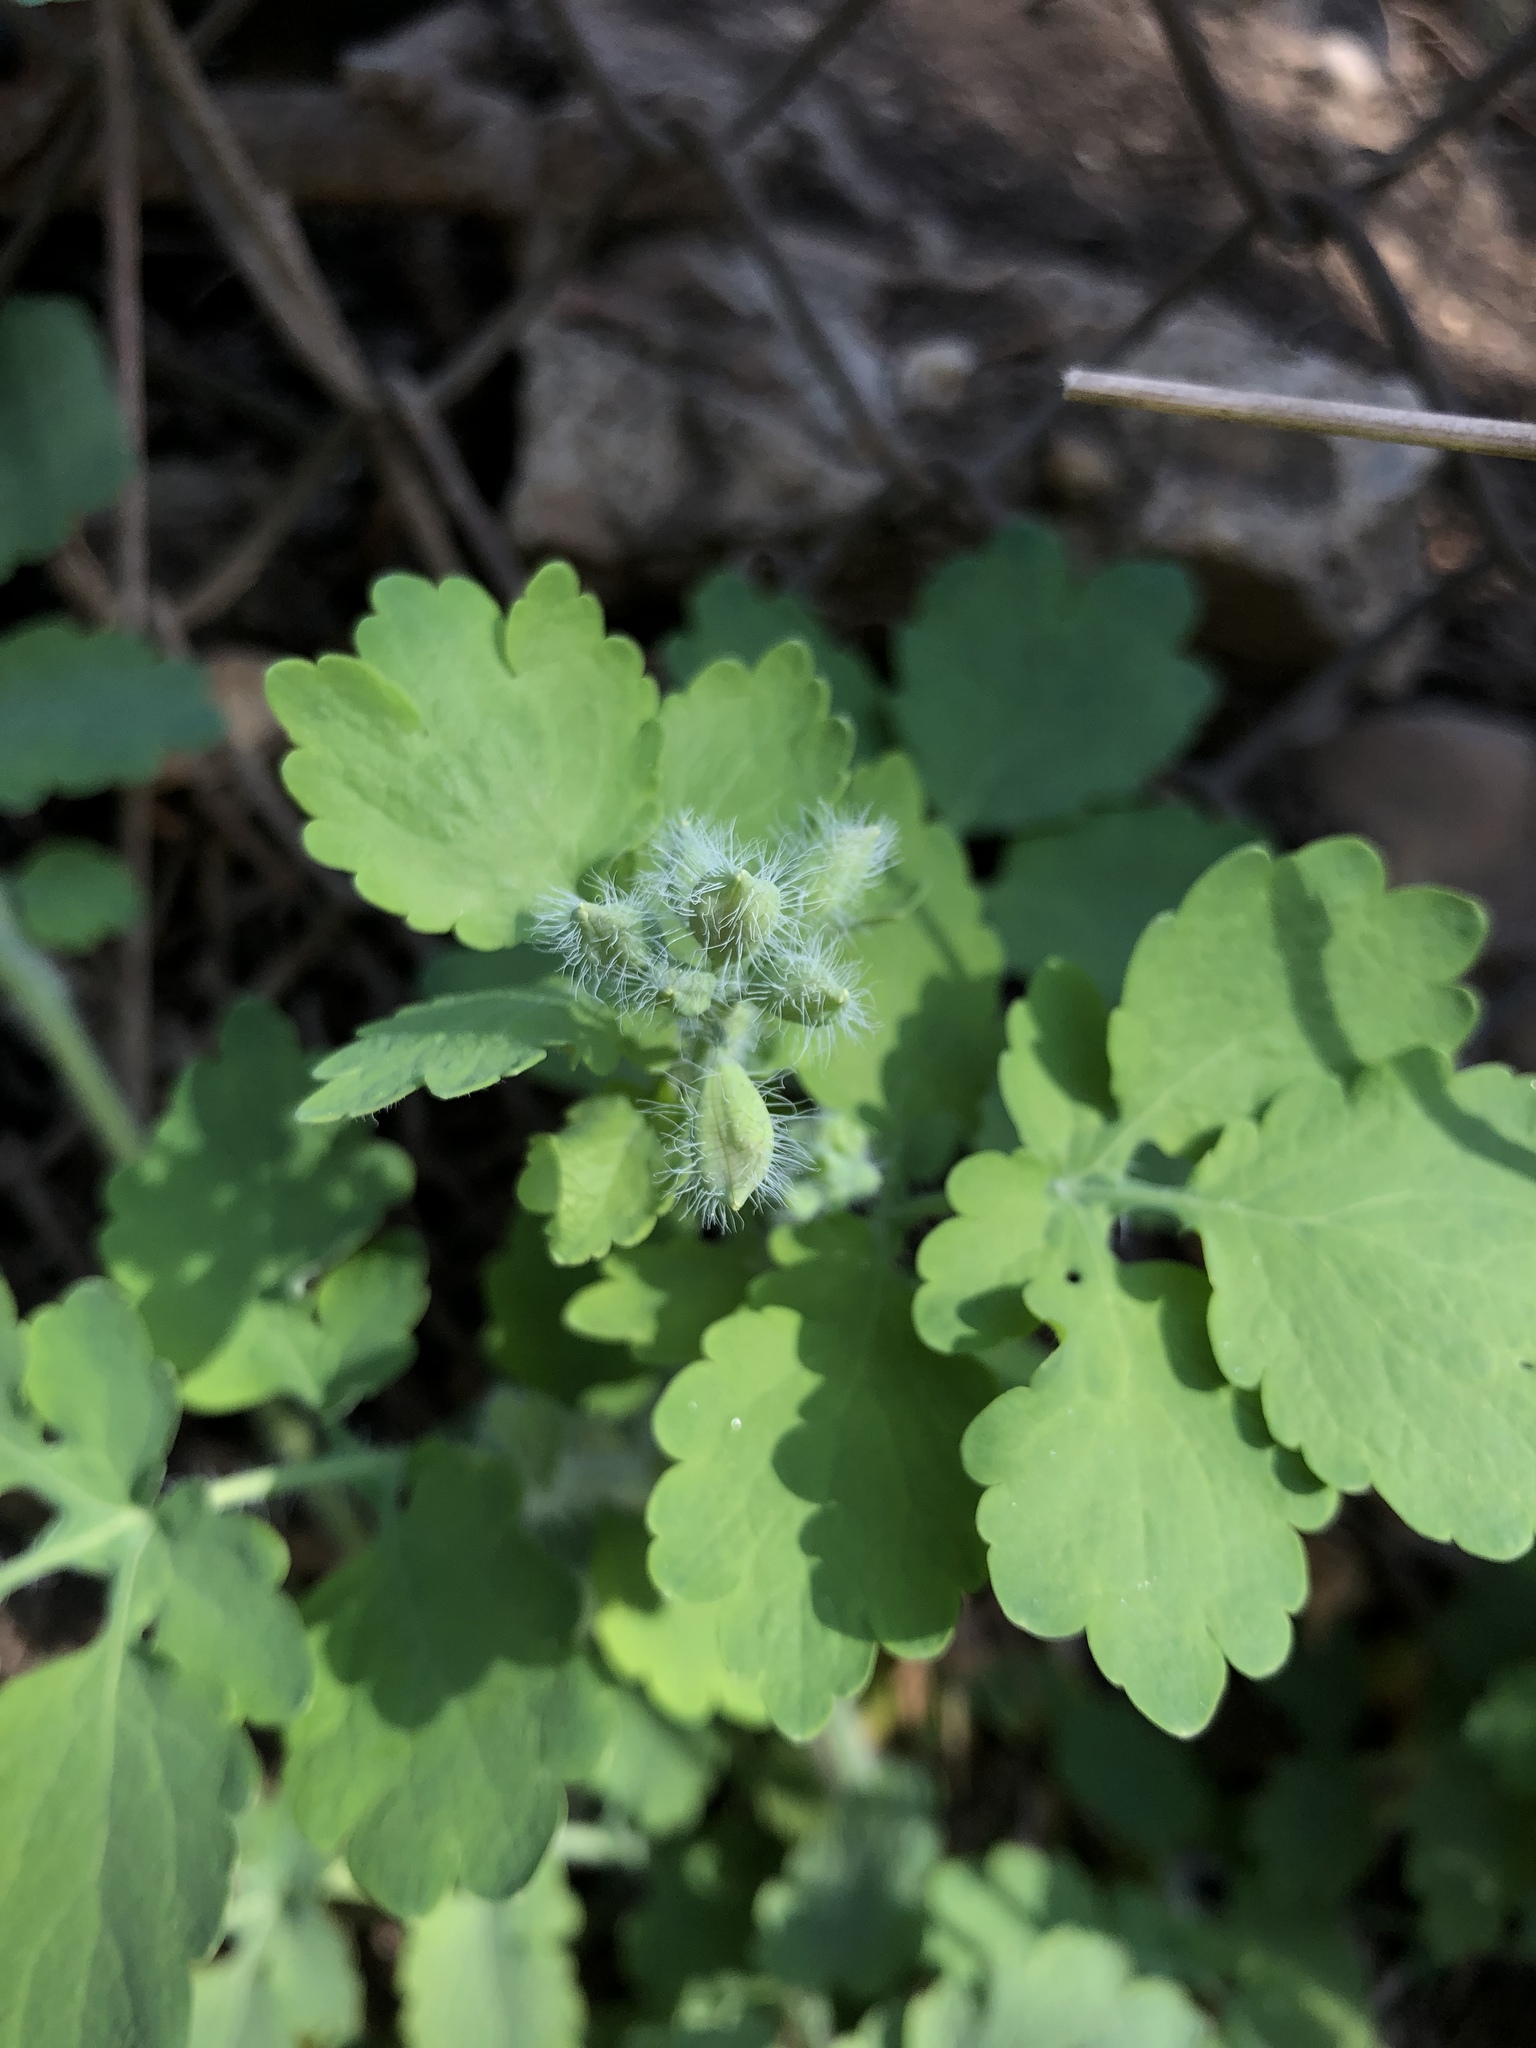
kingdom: Plantae
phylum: Tracheophyta
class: Magnoliopsida
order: Ranunculales
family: Papaveraceae
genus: Chelidonium
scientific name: Chelidonium majus
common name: Greater celandine
